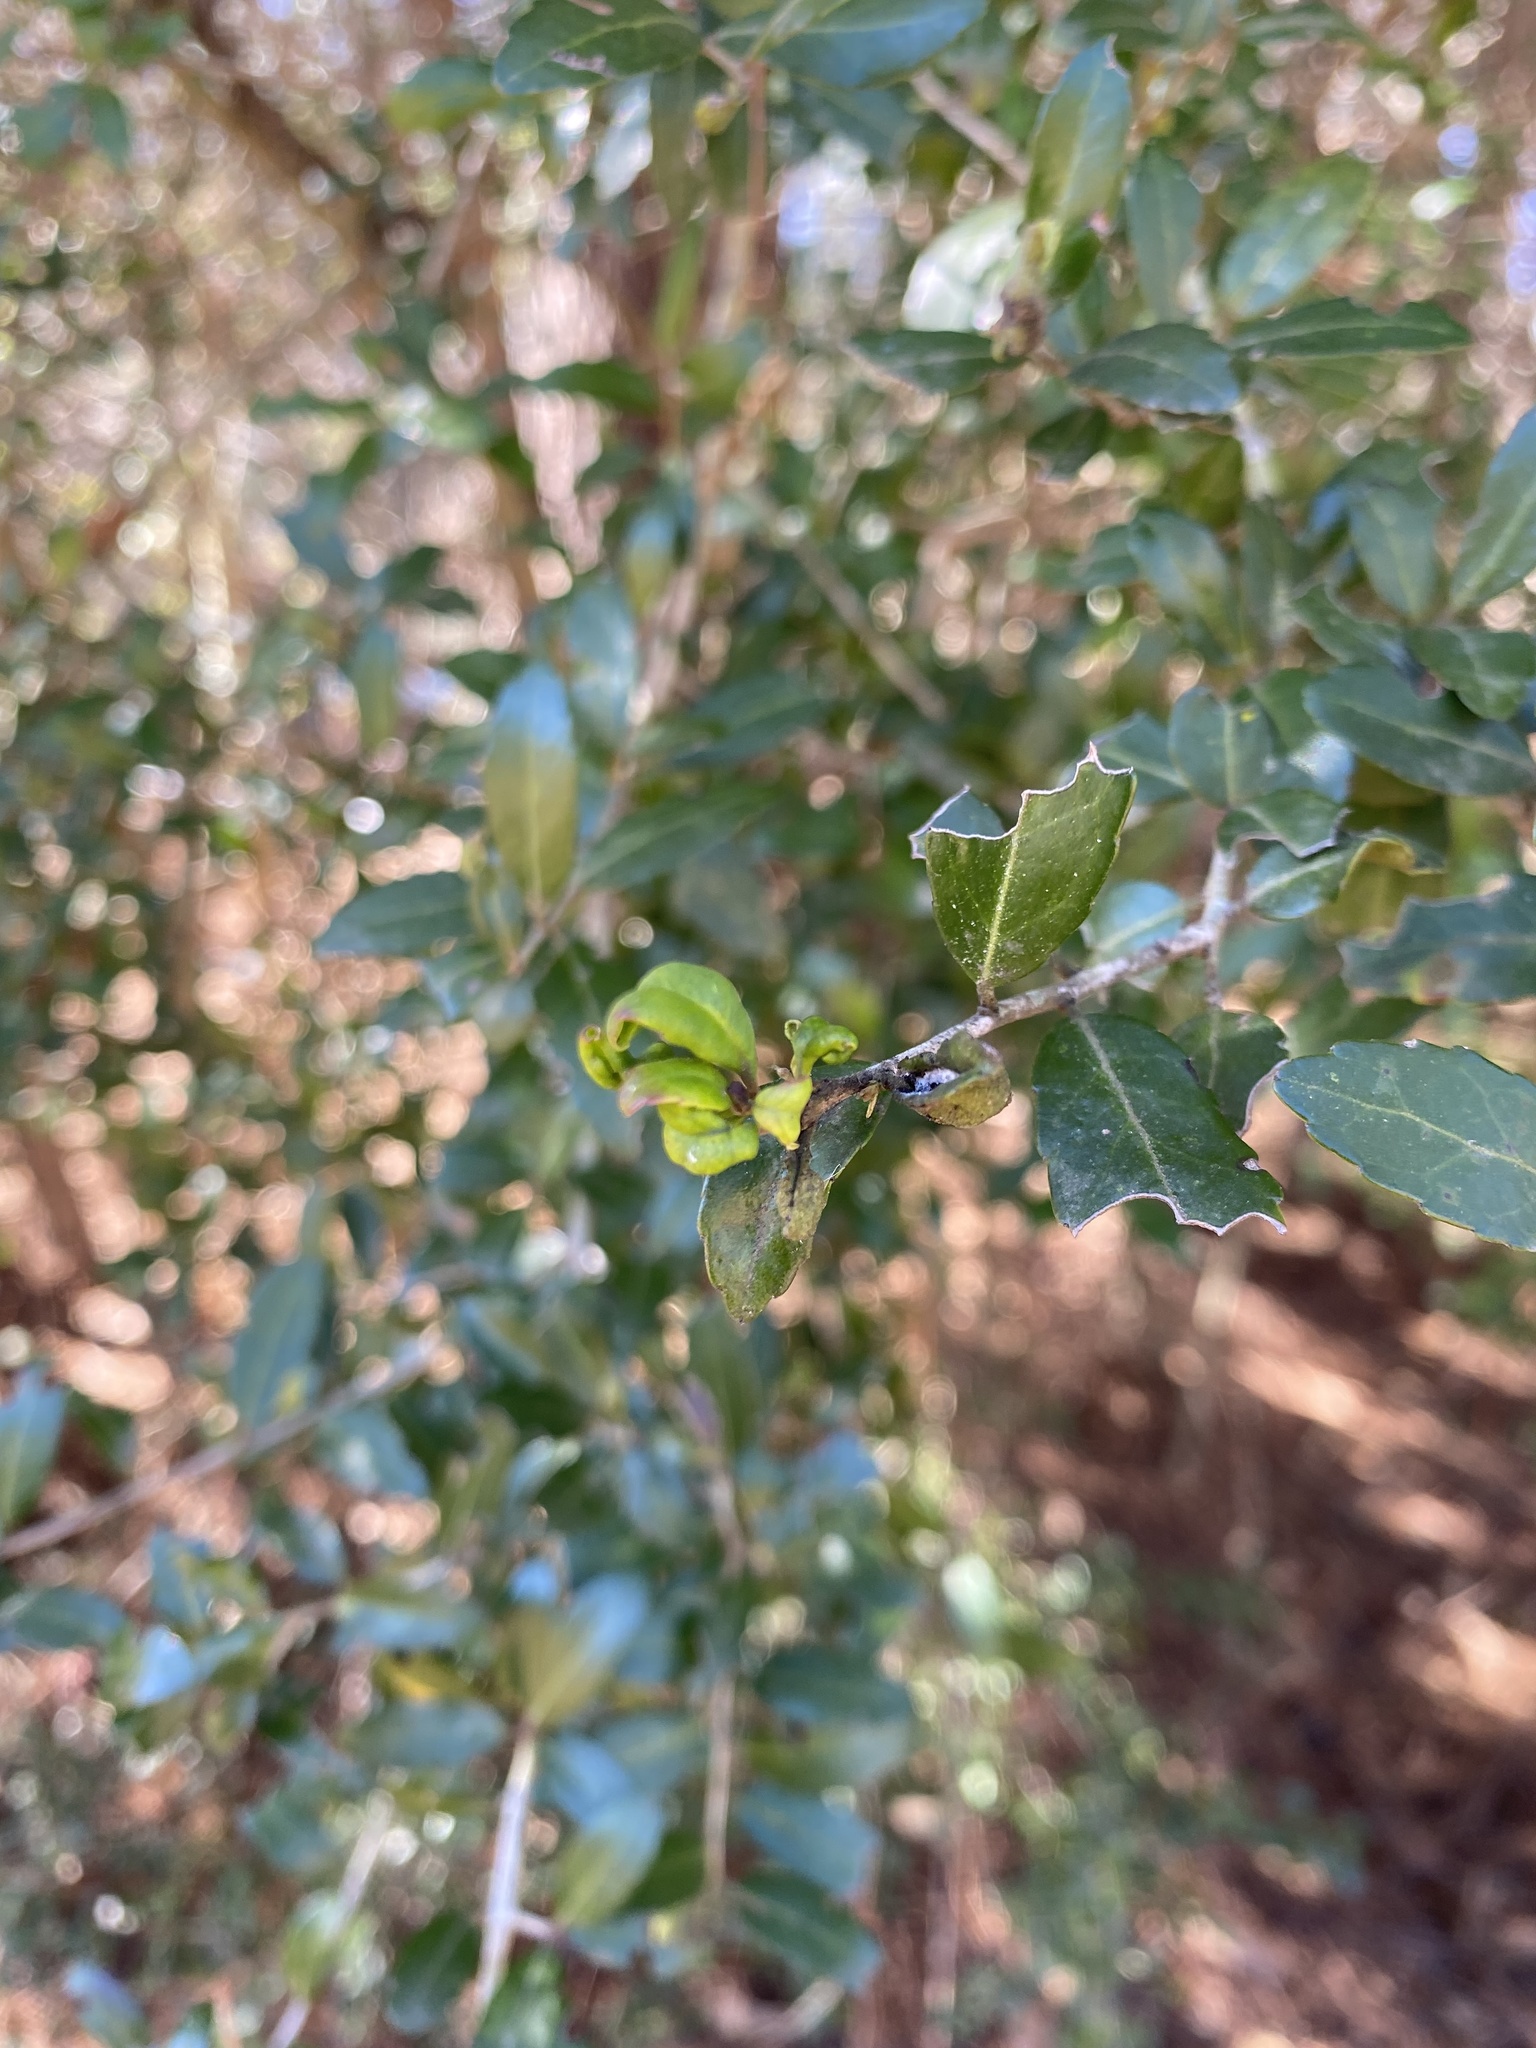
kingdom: Animalia
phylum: Arthropoda
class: Insecta
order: Hemiptera
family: Aphalaridae
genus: Gyropsylla
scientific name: Gyropsylla ilecis
